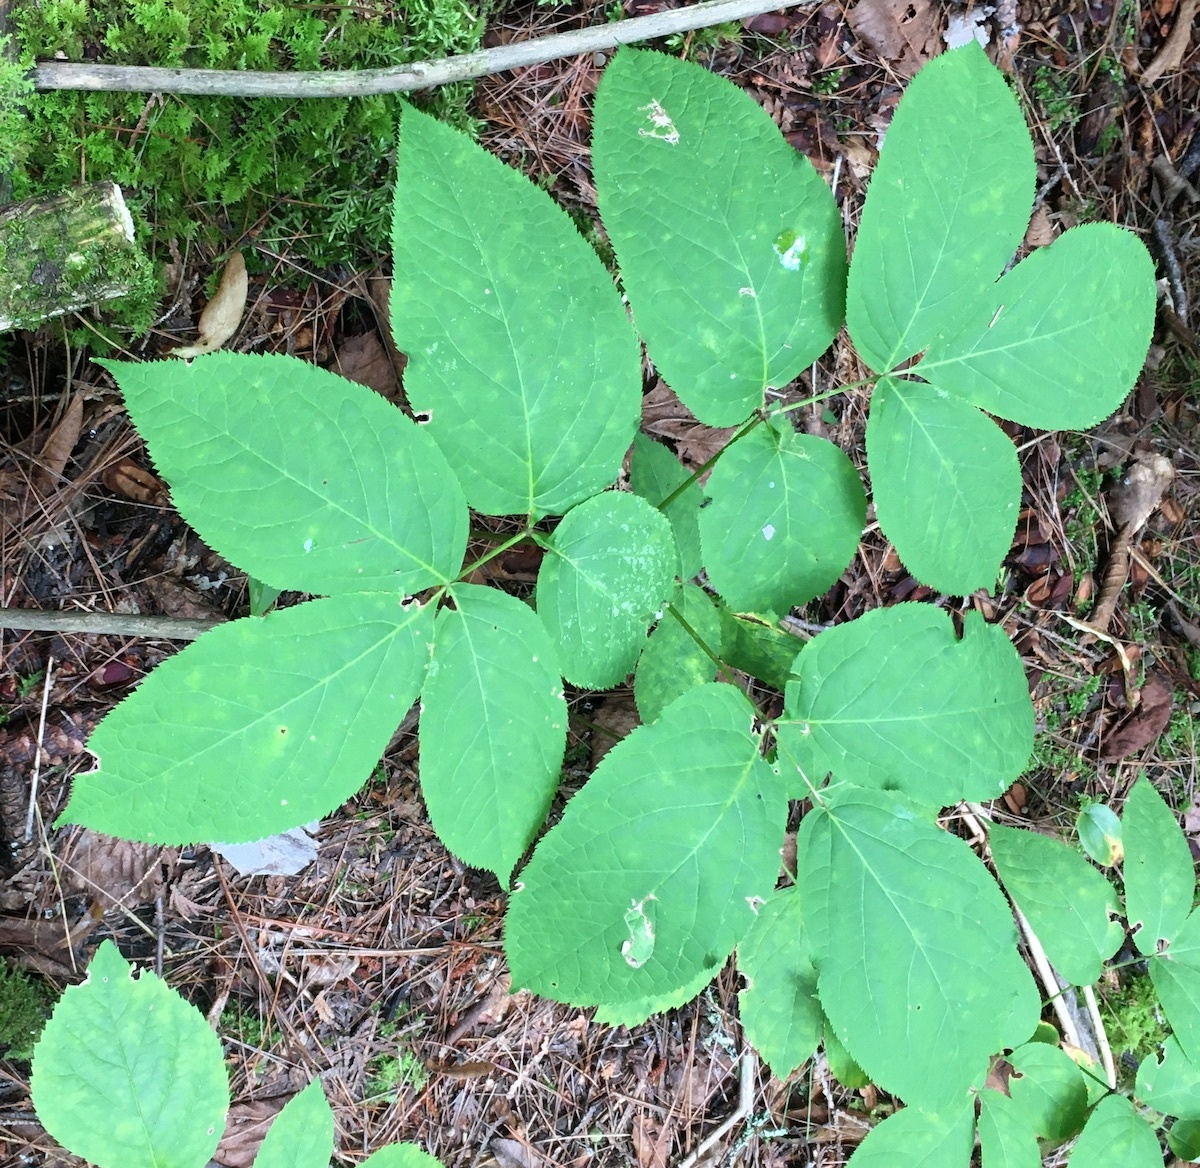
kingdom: Plantae
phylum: Tracheophyta
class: Magnoliopsida
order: Apiales
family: Araliaceae
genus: Aralia
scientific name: Aralia nudicaulis
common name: Wild sarsaparilla
